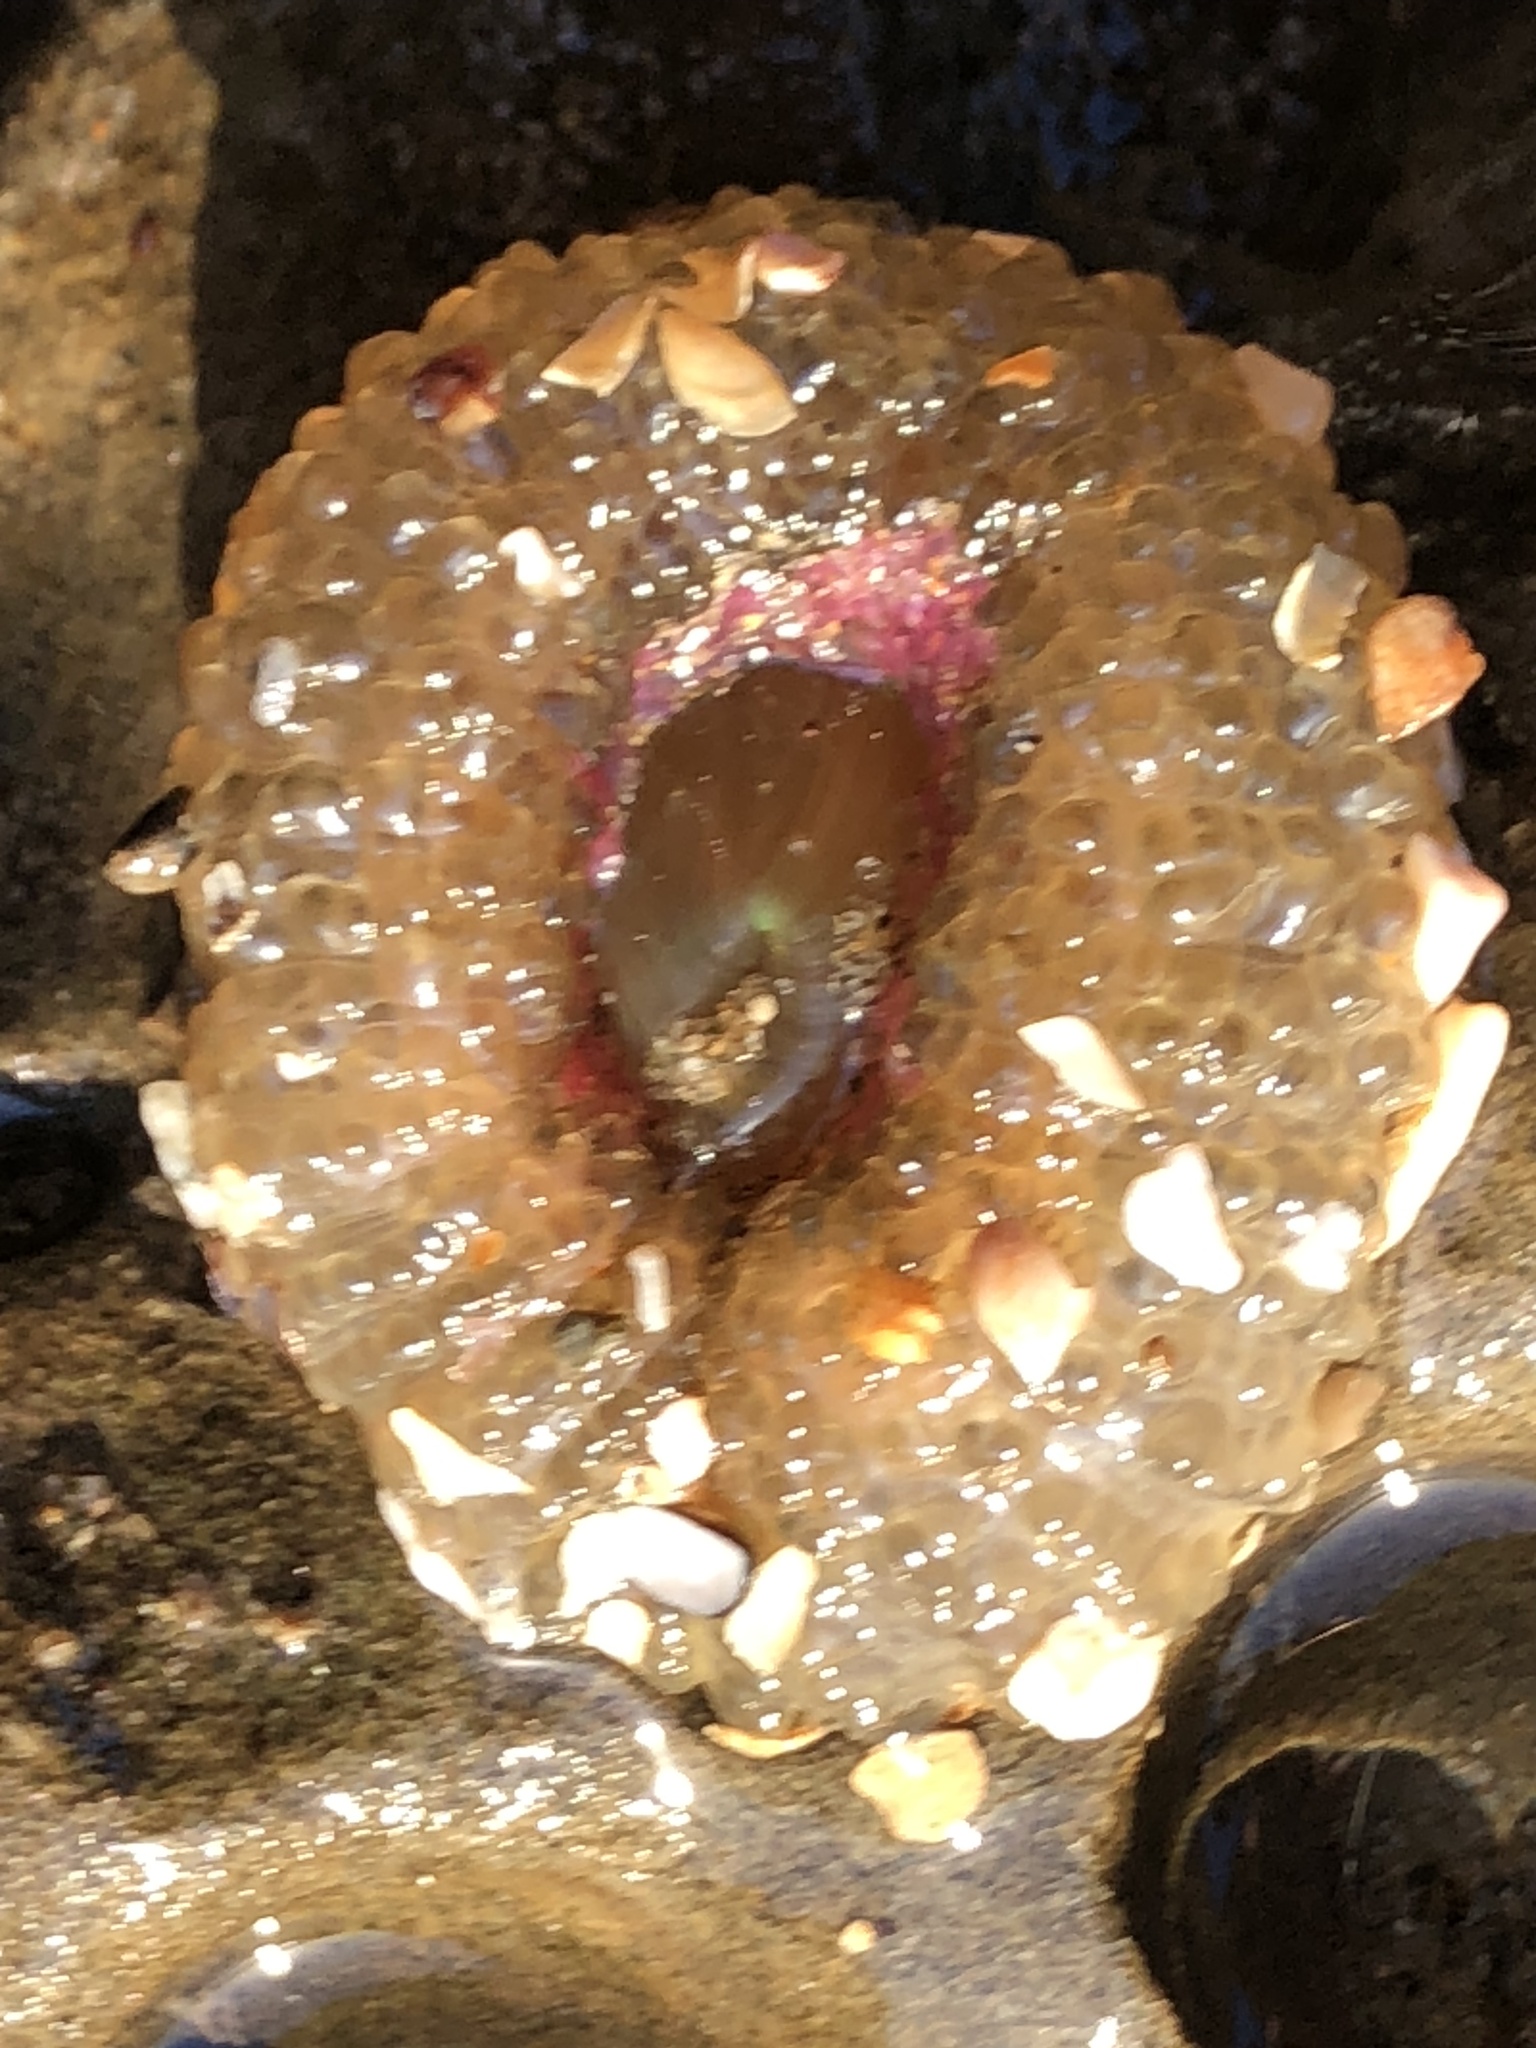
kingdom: Animalia
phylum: Cnidaria
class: Anthozoa
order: Actiniaria
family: Actiniidae
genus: Anthopleura
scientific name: Anthopleura elegantissima
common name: Clonal anemone
